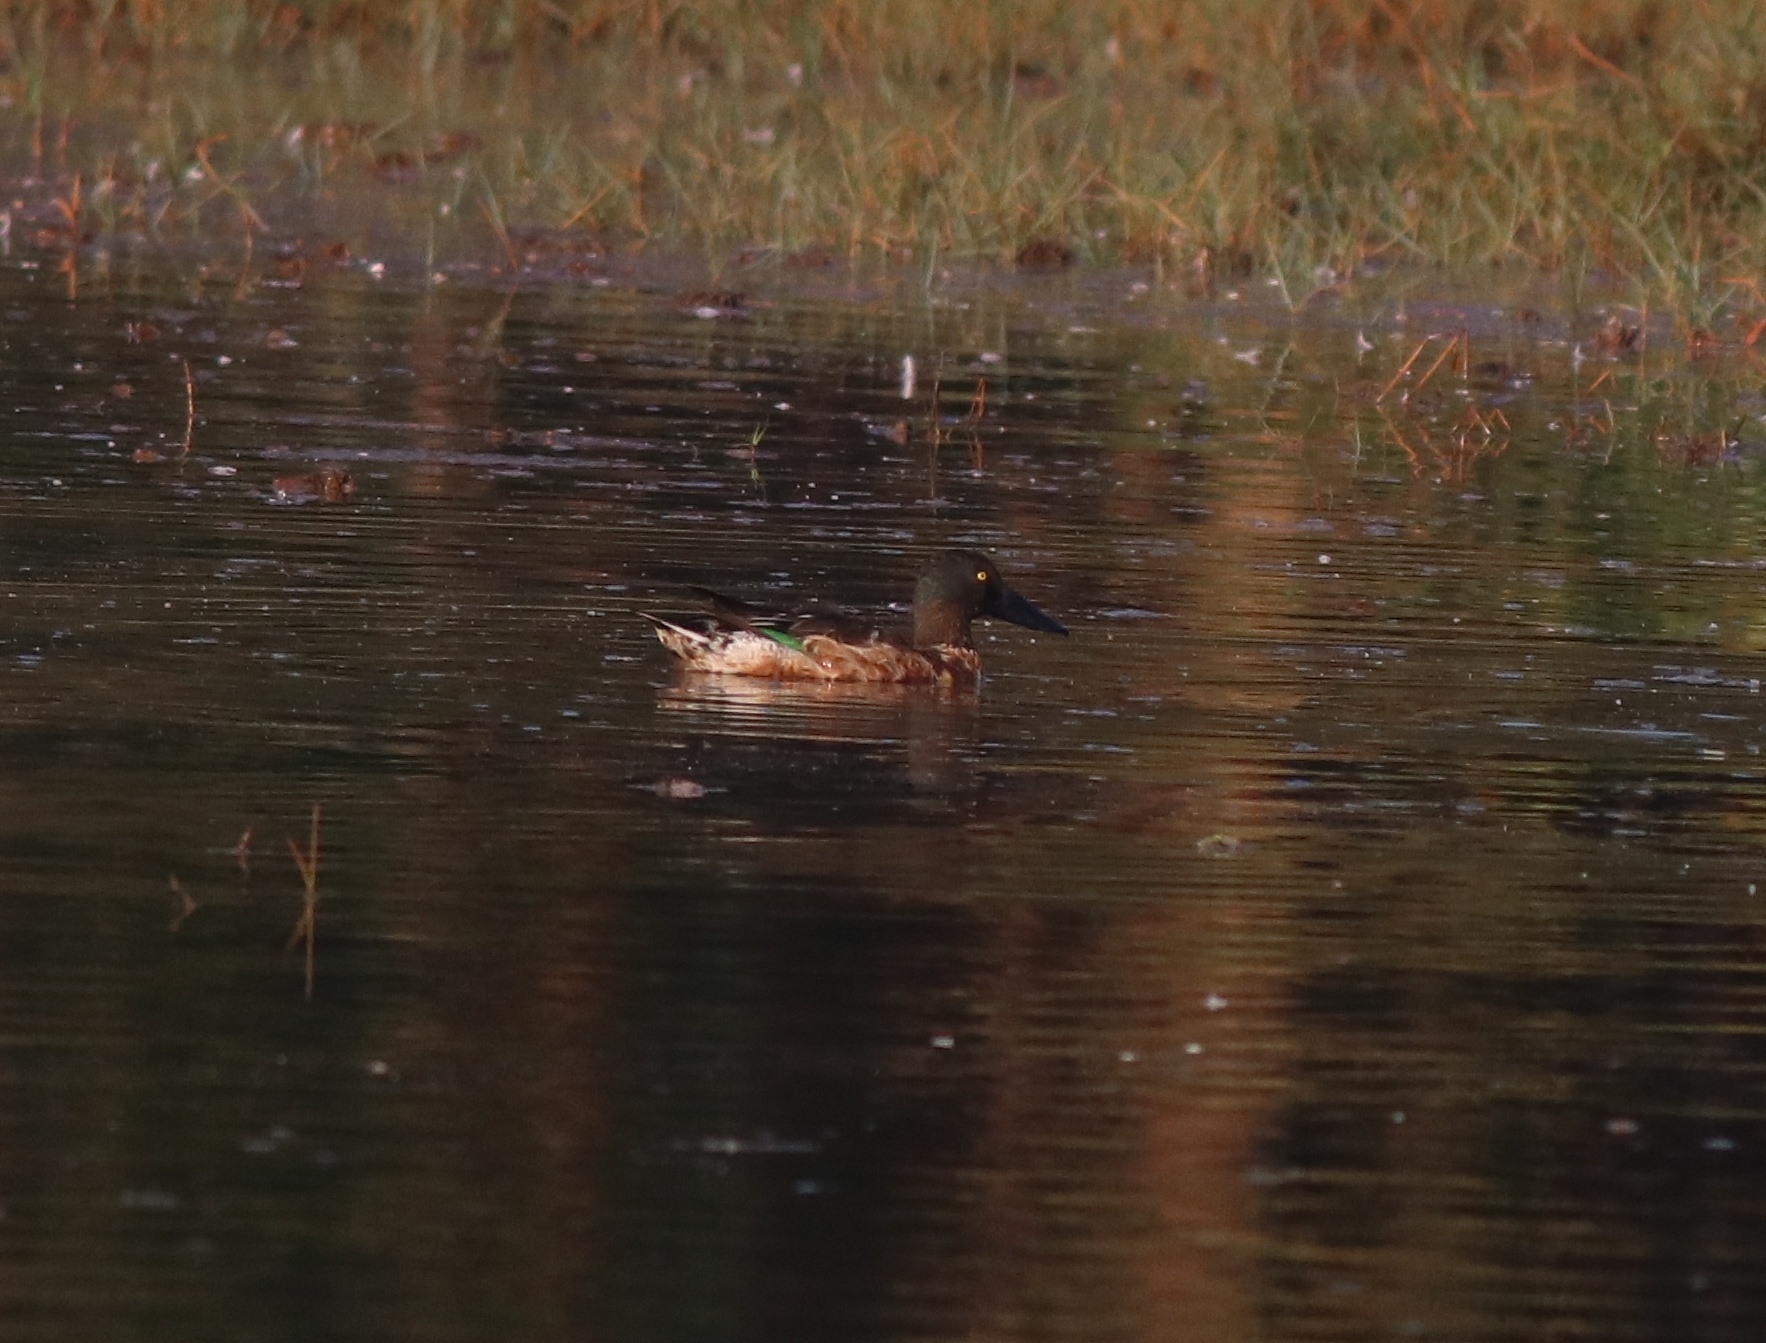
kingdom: Animalia
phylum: Chordata
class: Aves
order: Anseriformes
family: Anatidae
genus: Spatula
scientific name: Spatula clypeata
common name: Northern shoveler
